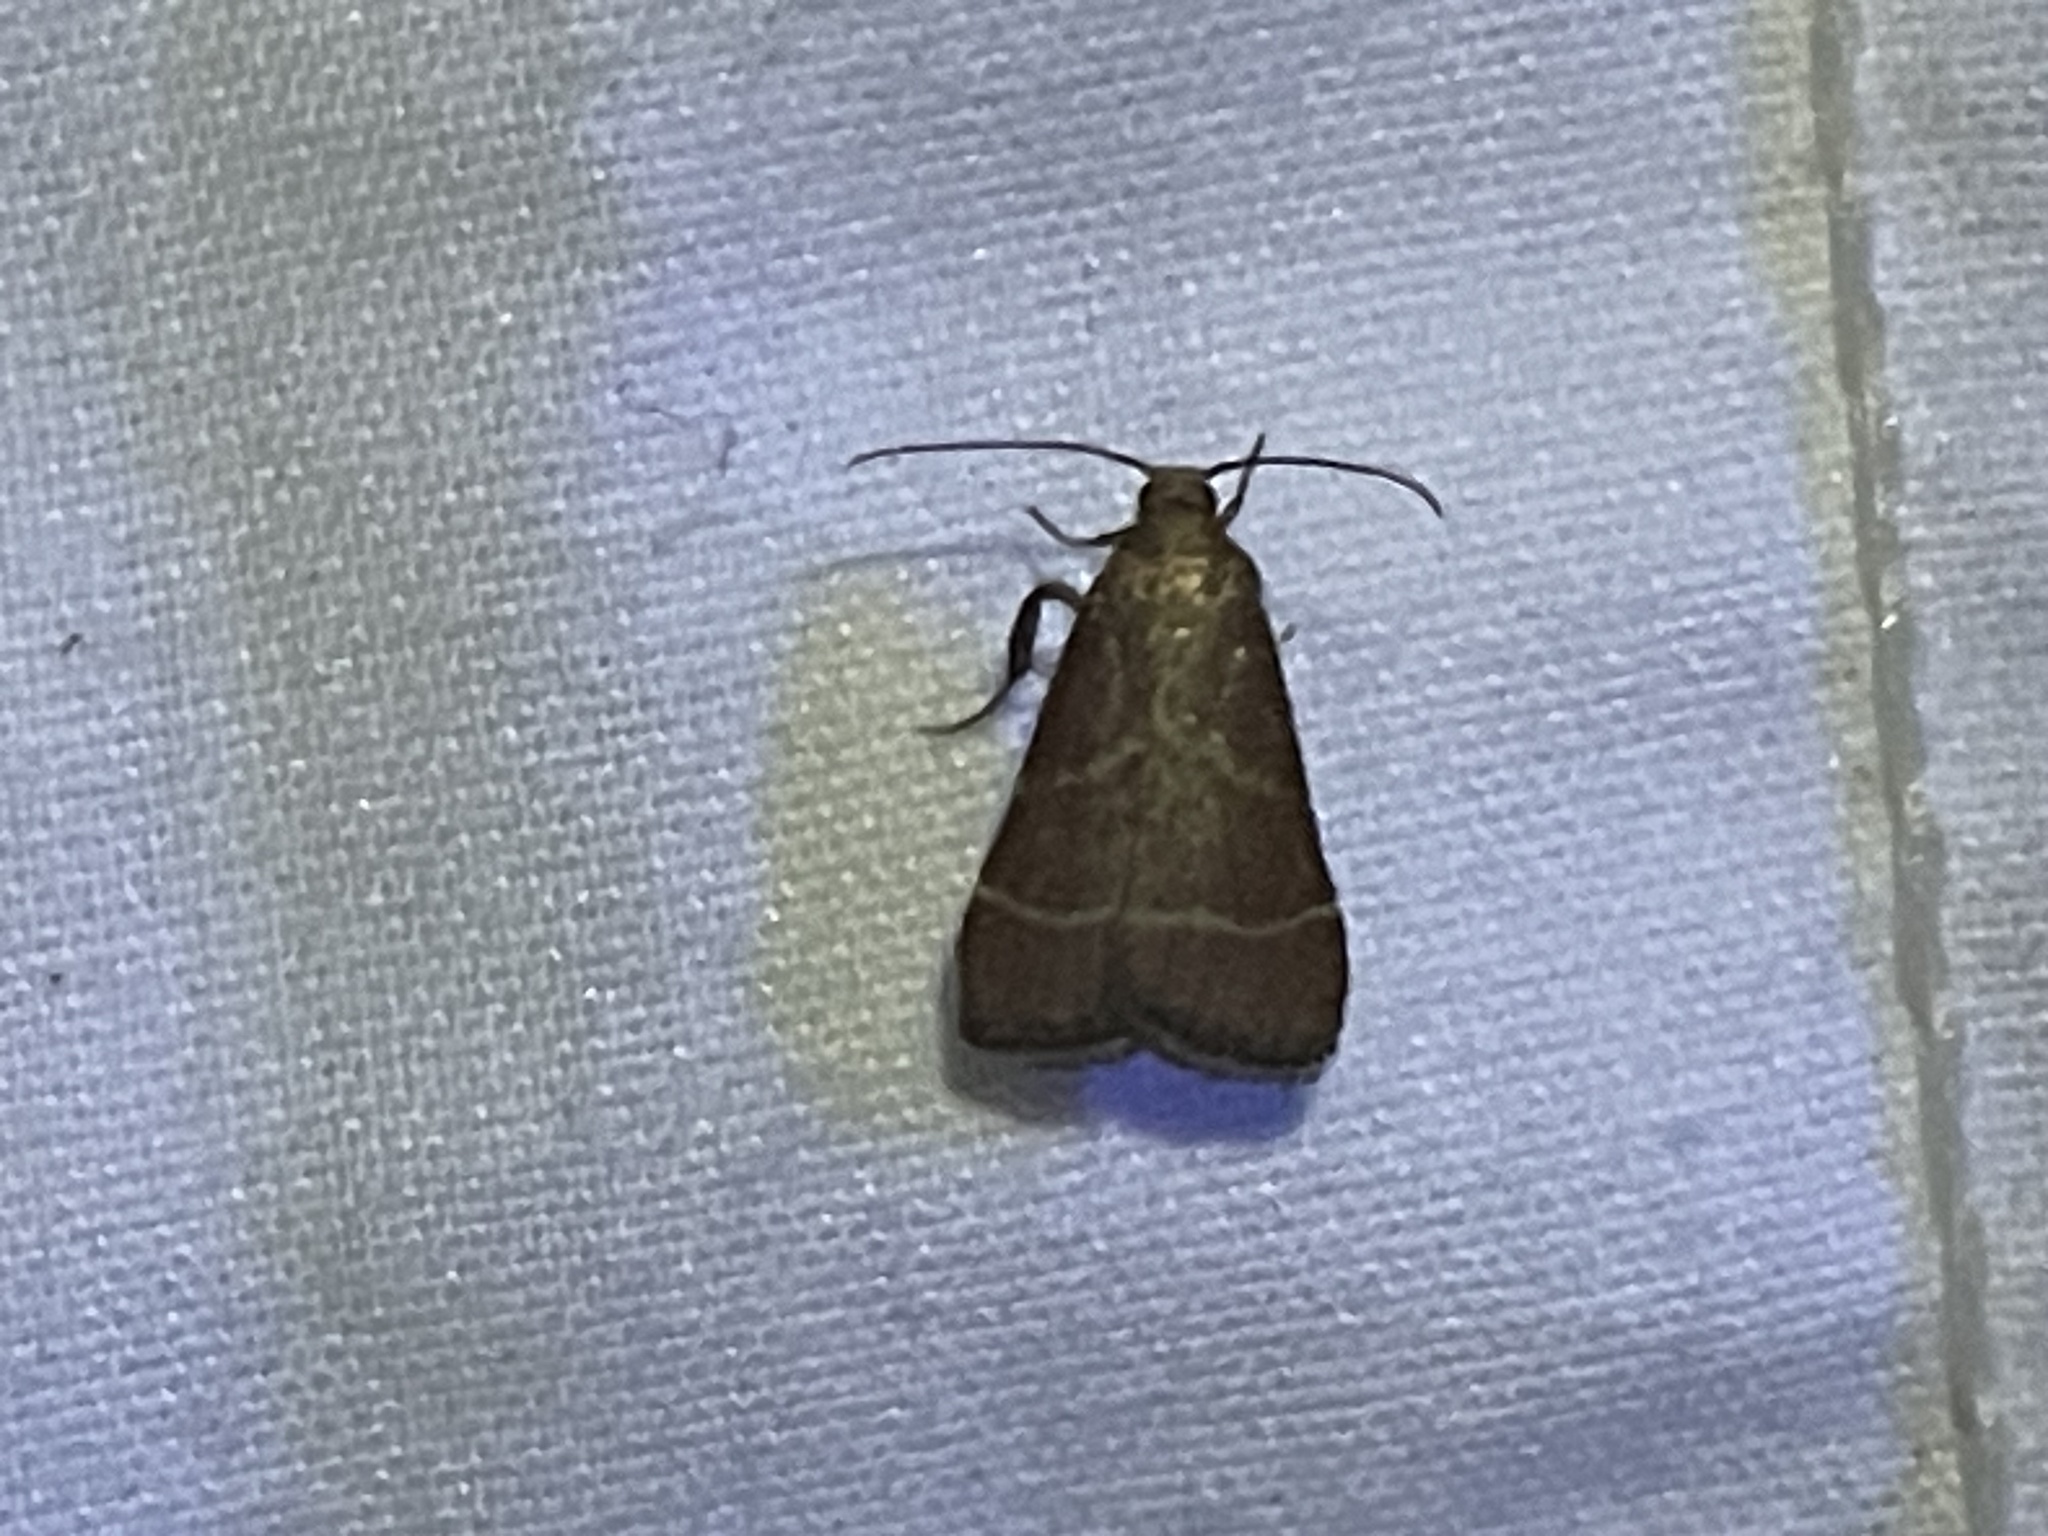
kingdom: Animalia
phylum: Arthropoda
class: Insecta
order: Lepidoptera
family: Pyralidae
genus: Arta
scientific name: Arta statalis
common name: Posturing arta moth
